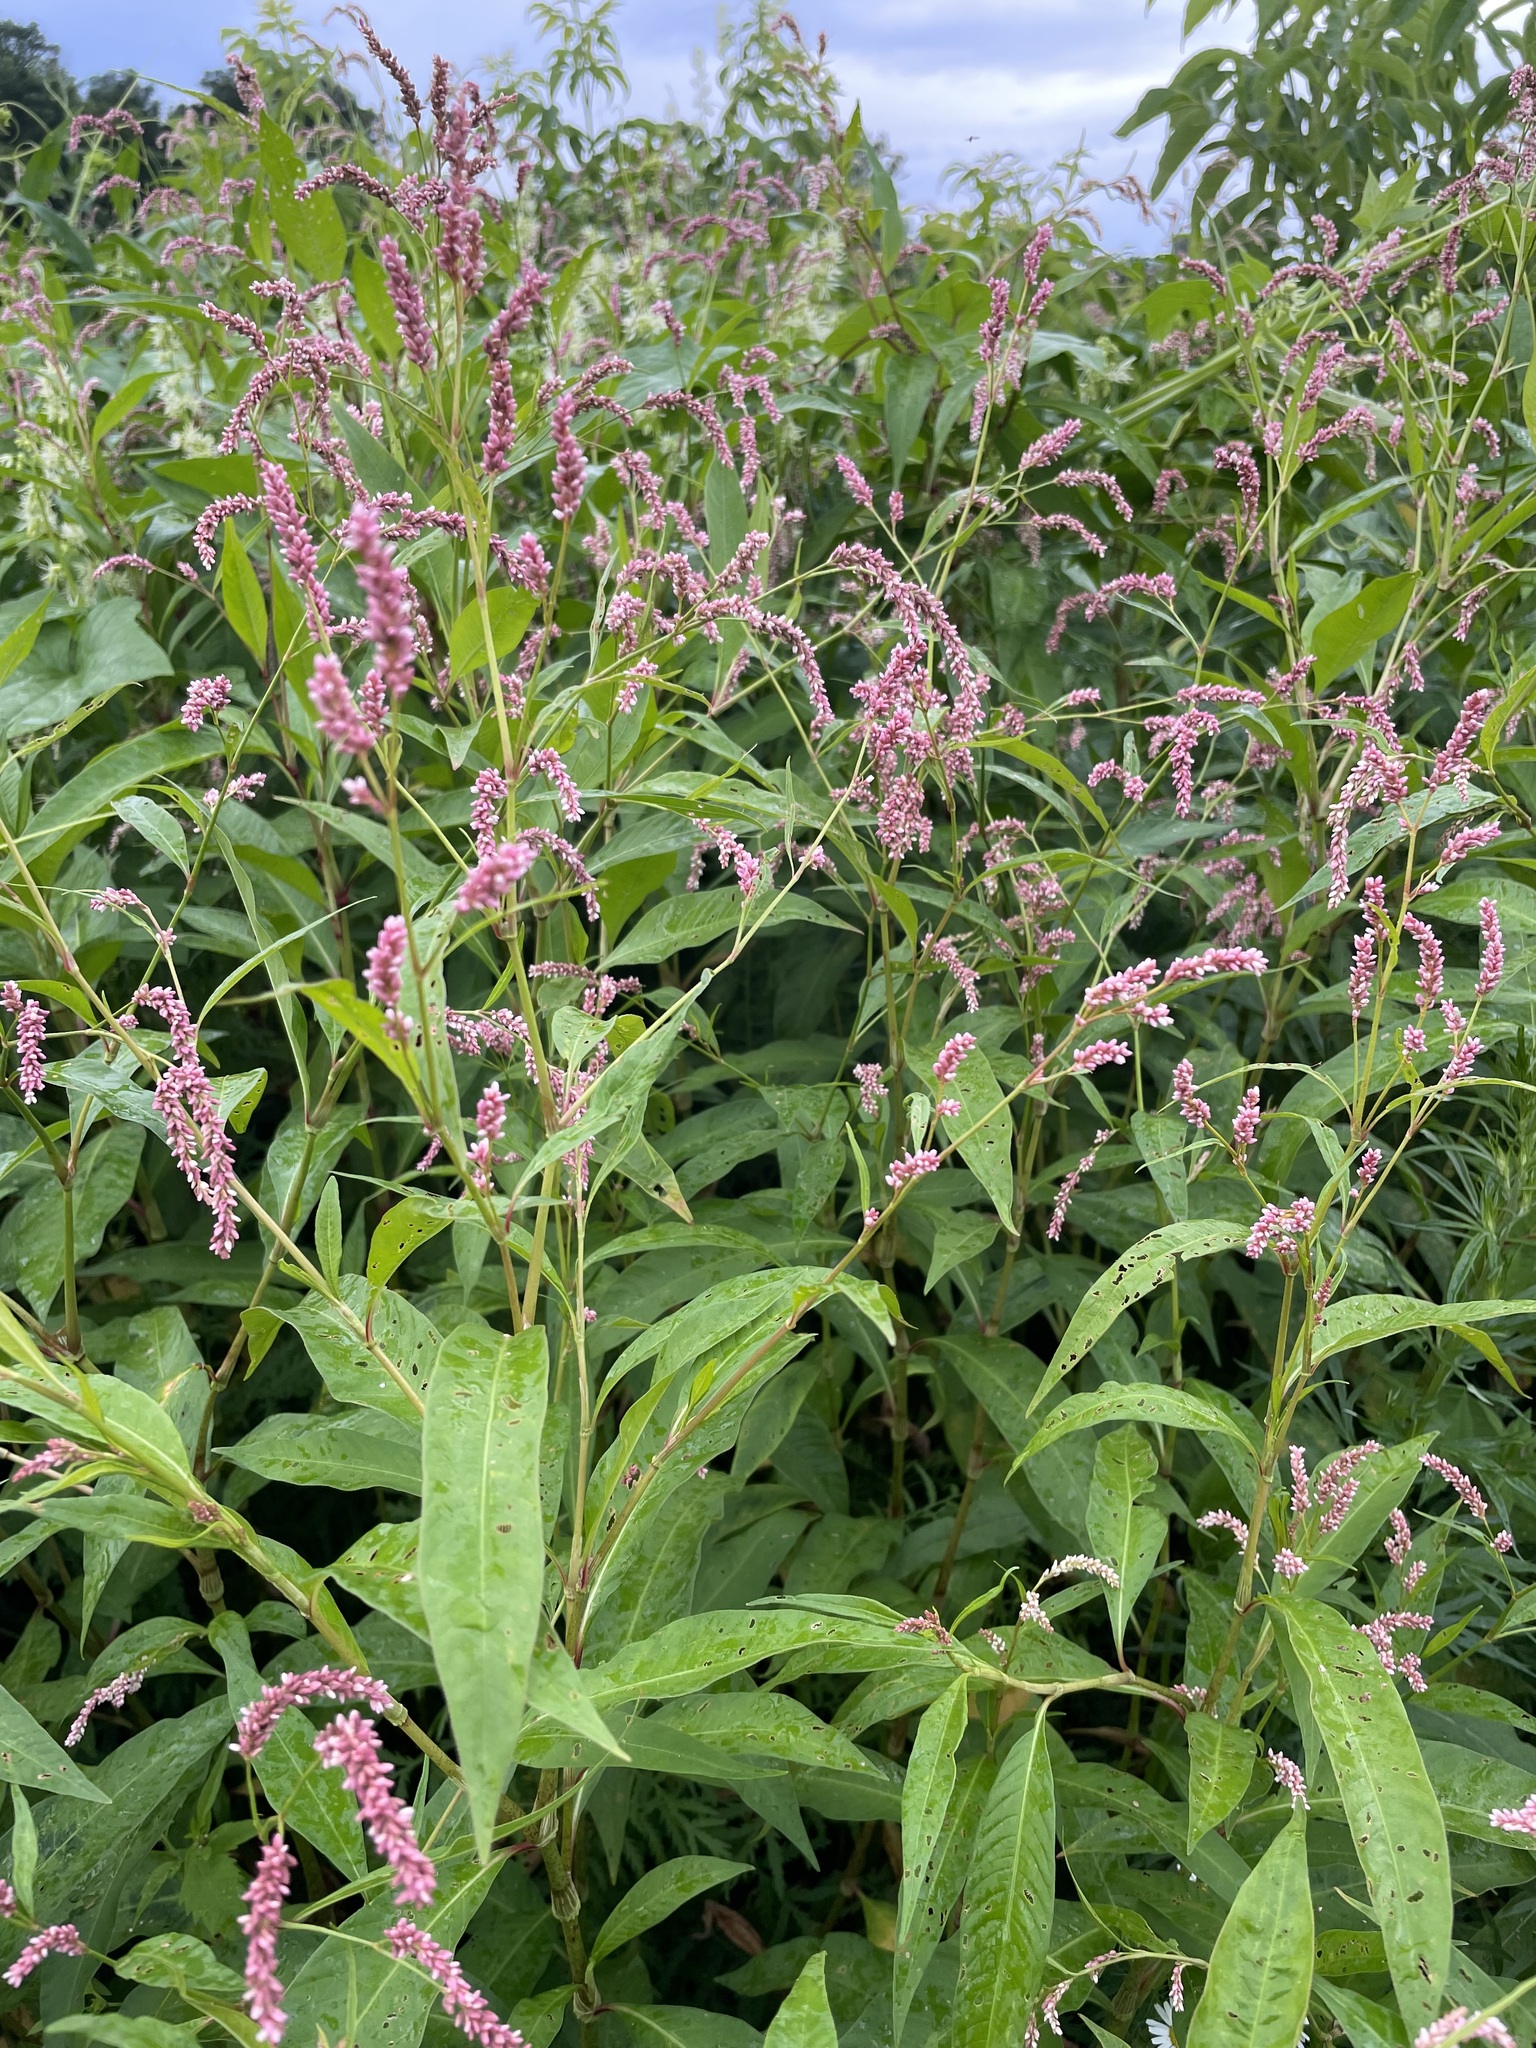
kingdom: Plantae
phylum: Tracheophyta
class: Magnoliopsida
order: Caryophyllales
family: Polygonaceae
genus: Persicaria
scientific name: Persicaria lapathifolia
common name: Curlytop knotweed
